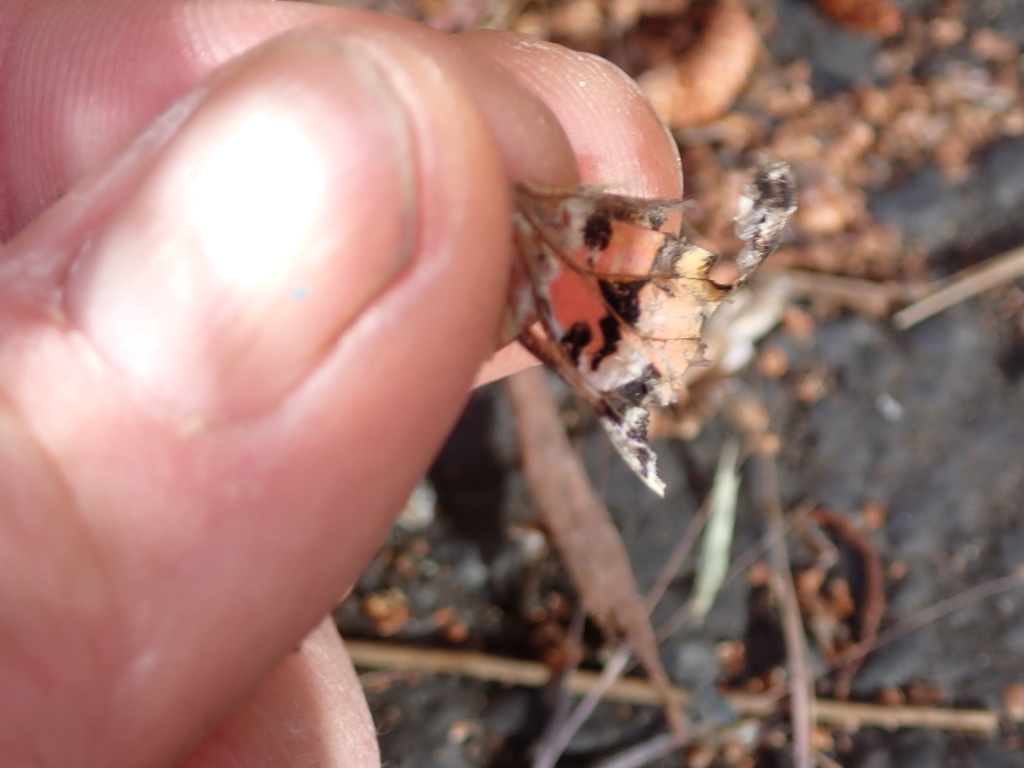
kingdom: Animalia
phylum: Arthropoda
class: Insecta
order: Lepidoptera
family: Nymphalidae
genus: Vanessa
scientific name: Vanessa cardui
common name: Painted lady
